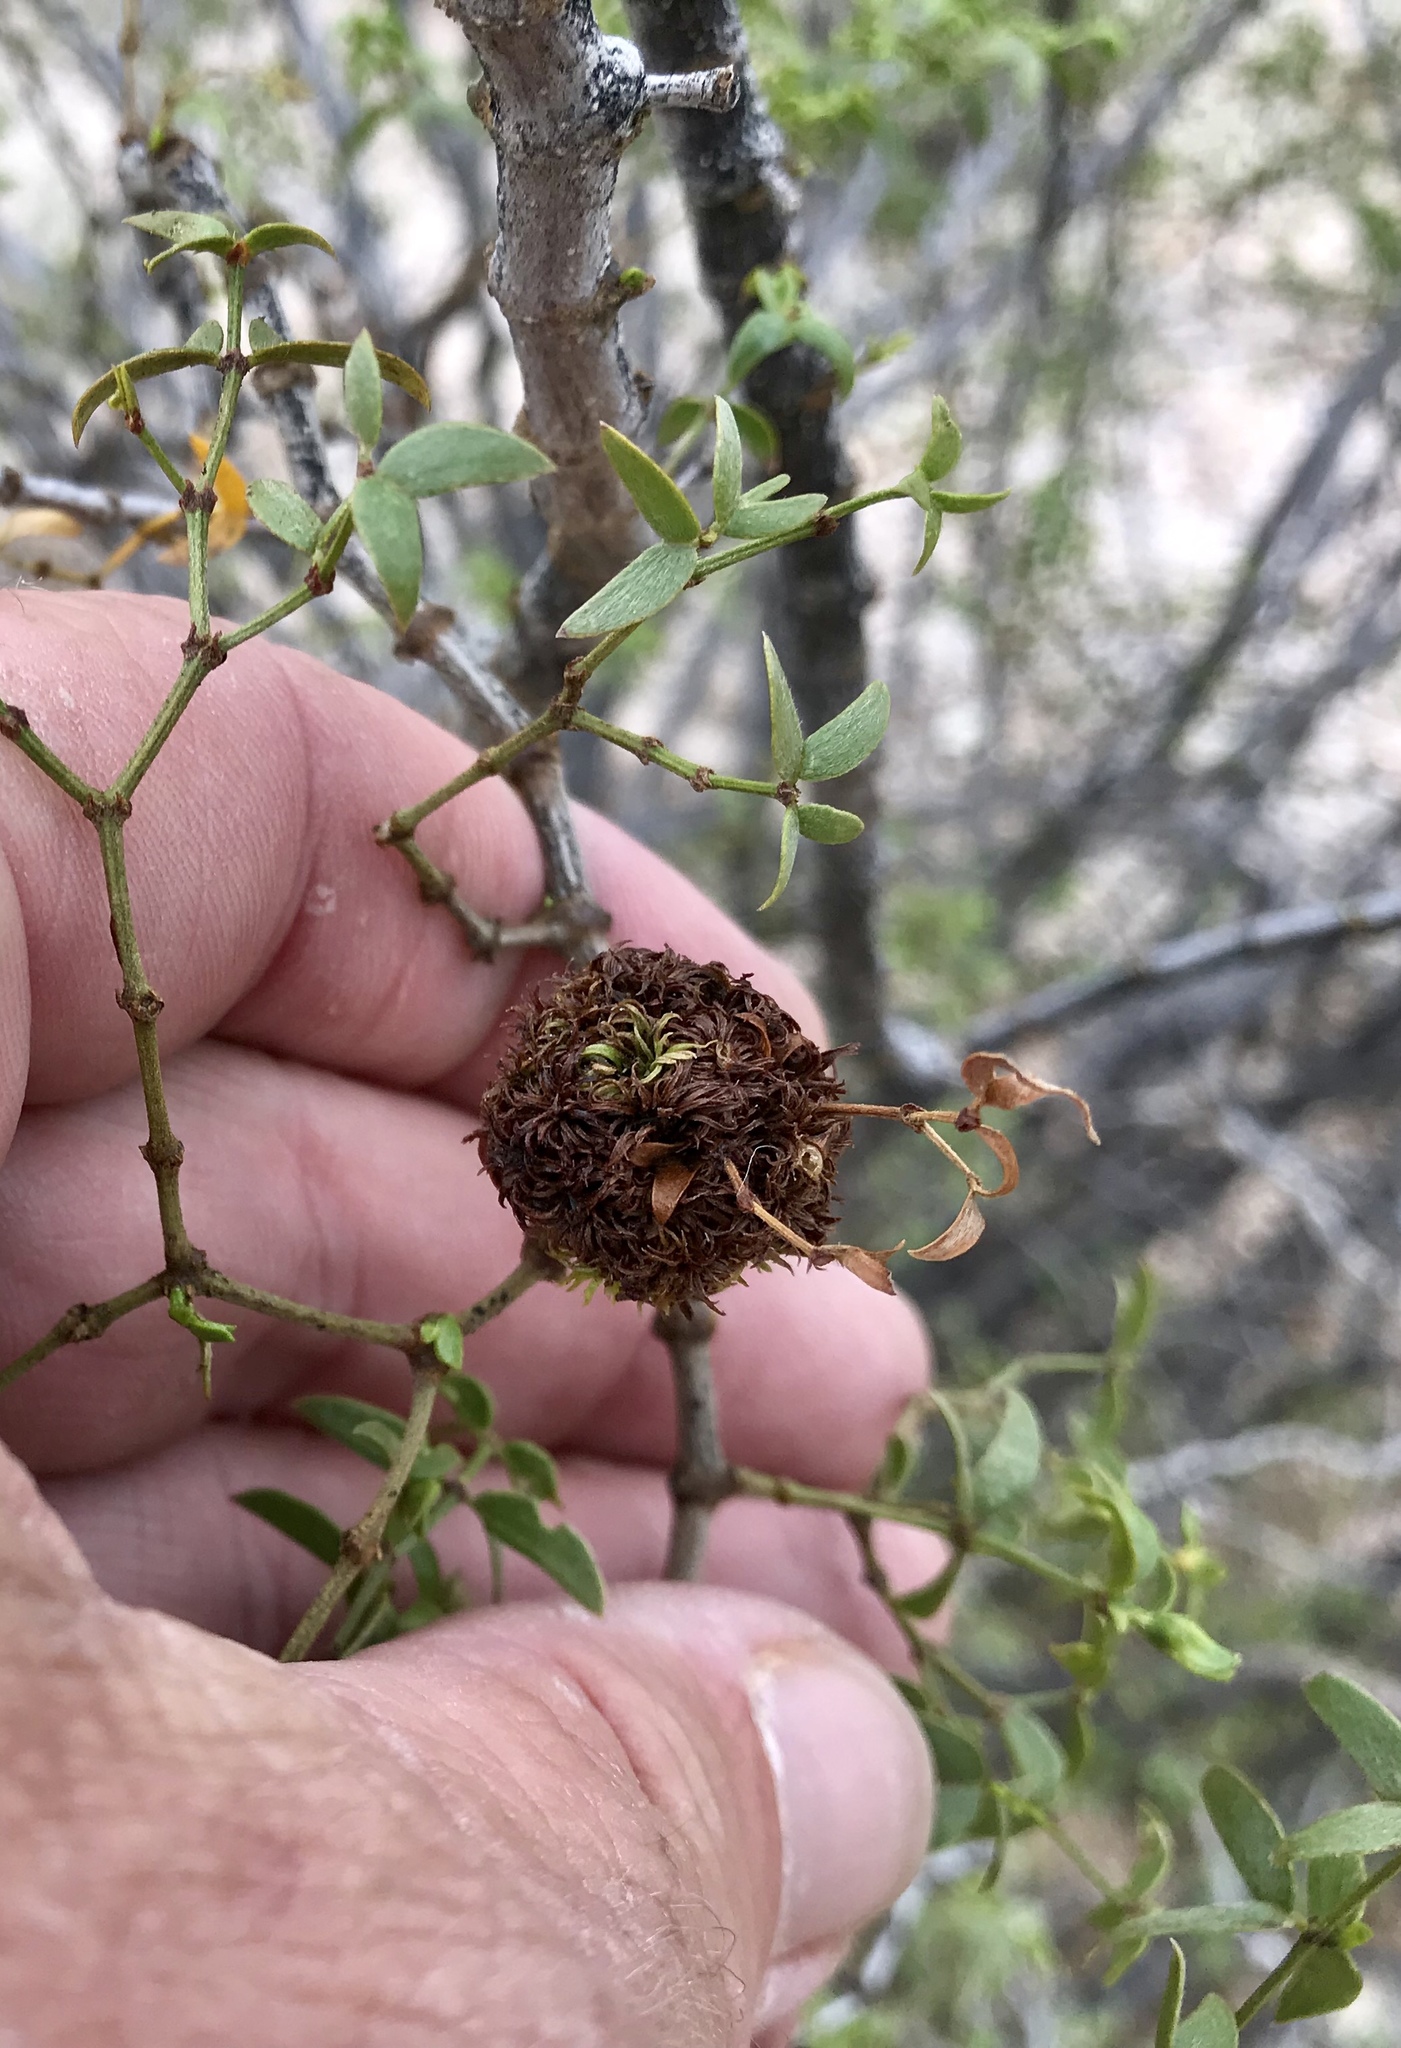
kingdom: Animalia
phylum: Arthropoda
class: Insecta
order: Diptera
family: Cecidomyiidae
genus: Asphondylia
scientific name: Asphondylia auripila
